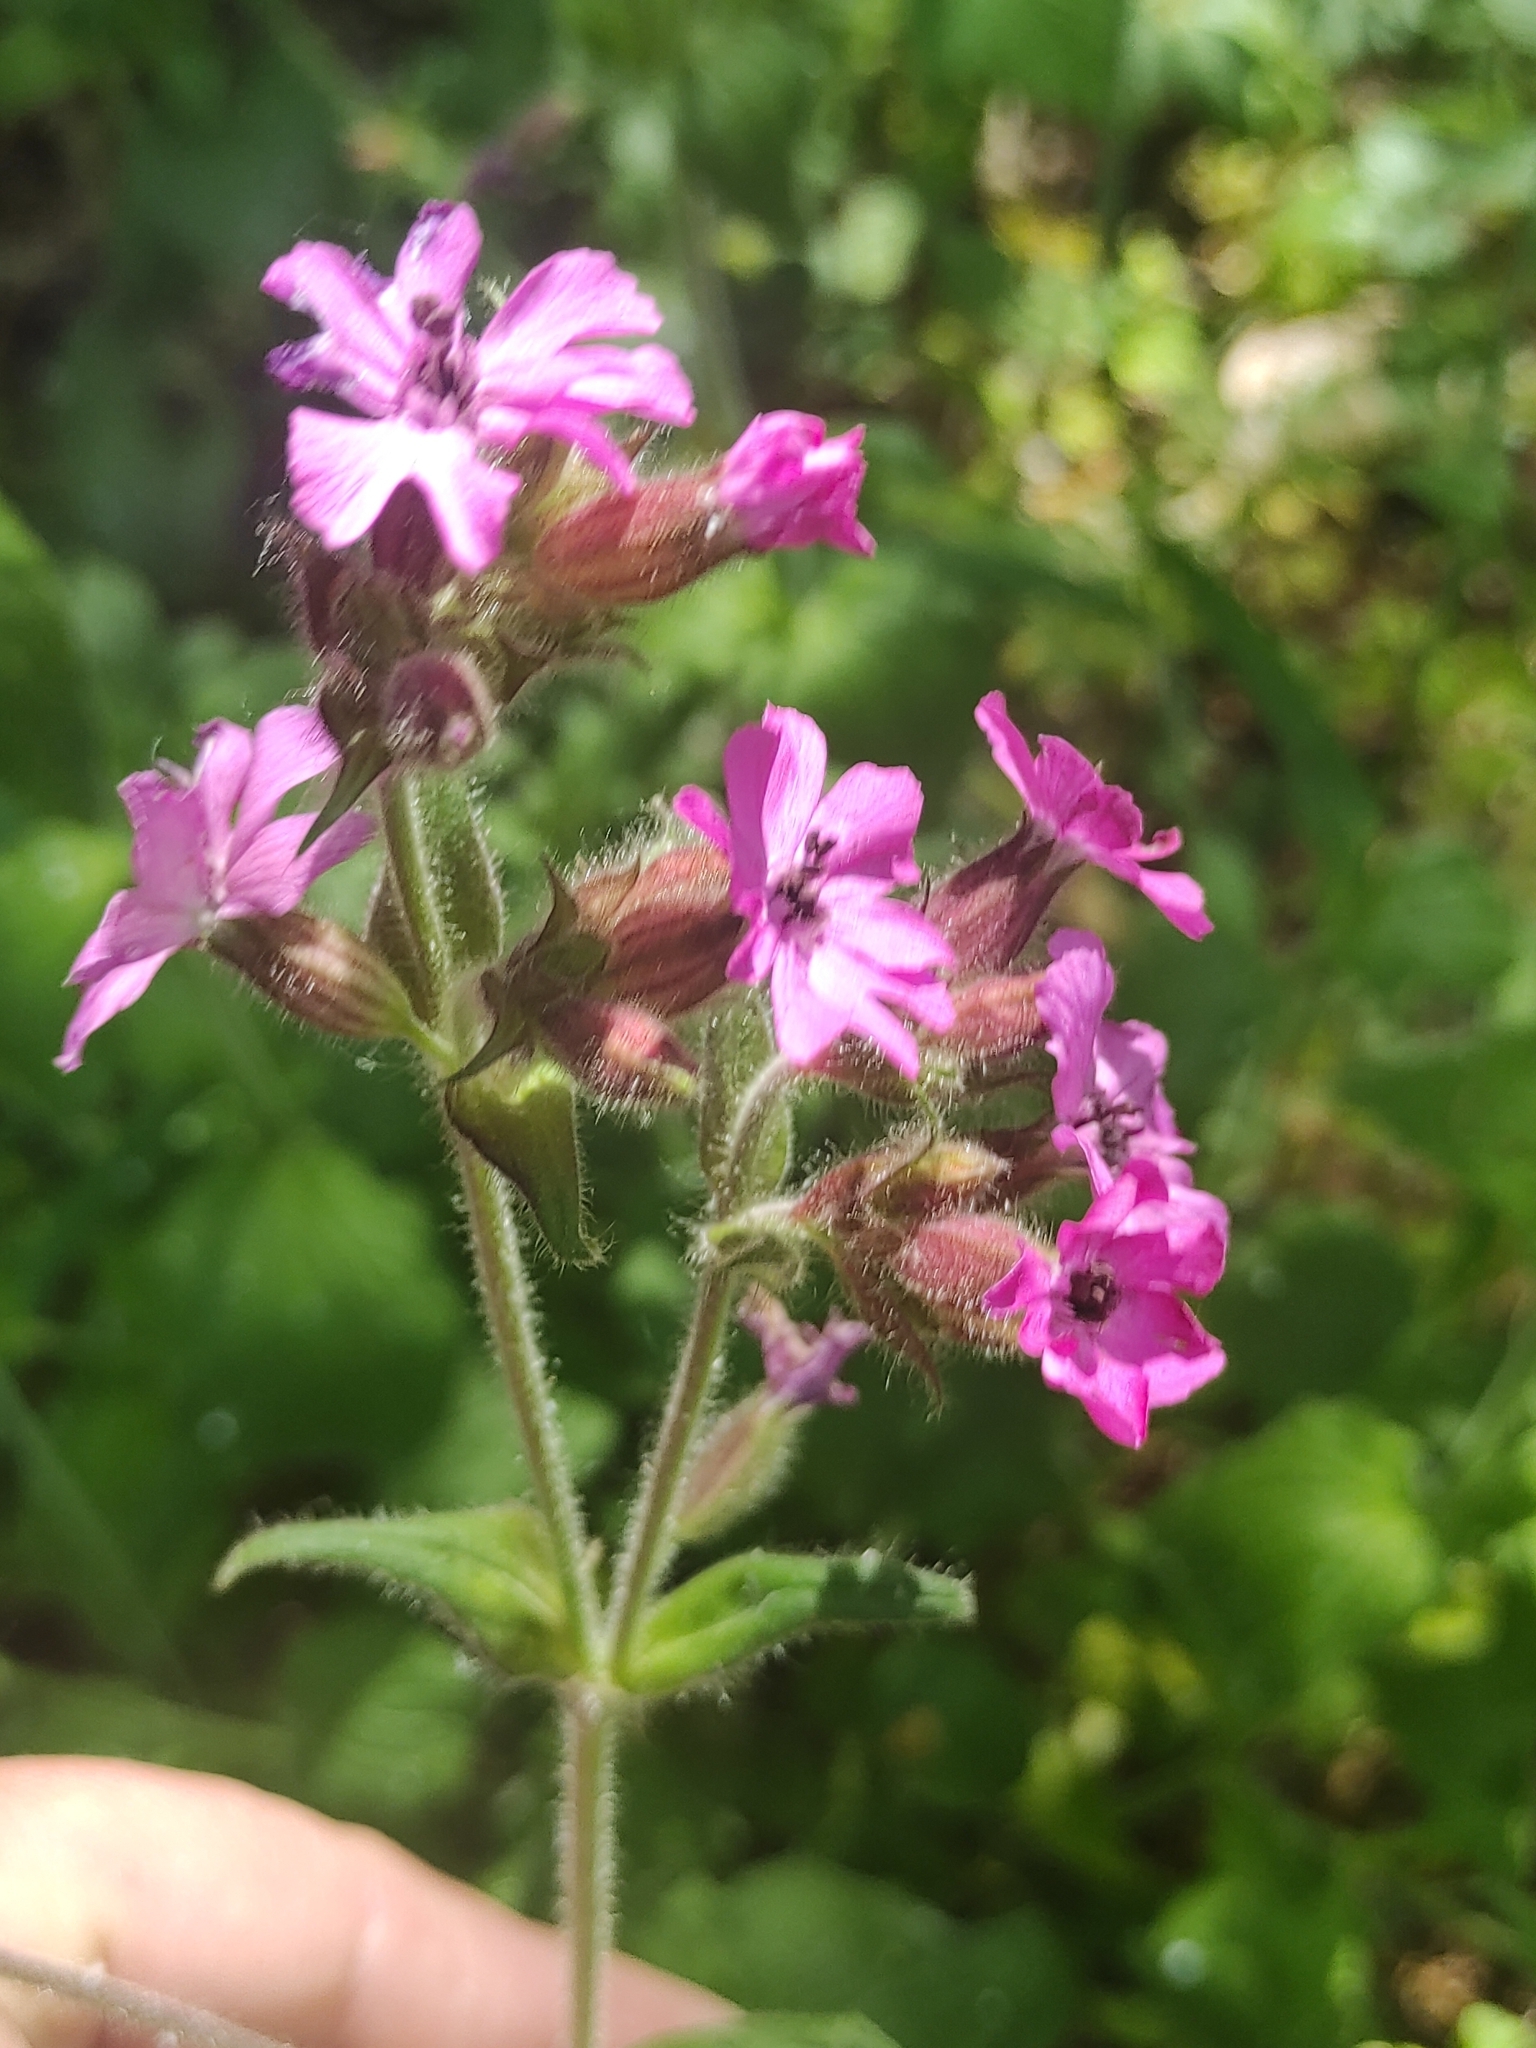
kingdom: Plantae
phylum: Tracheophyta
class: Magnoliopsida
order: Caryophyllales
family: Caryophyllaceae
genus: Silene
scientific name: Silene dioica
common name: Red campion
